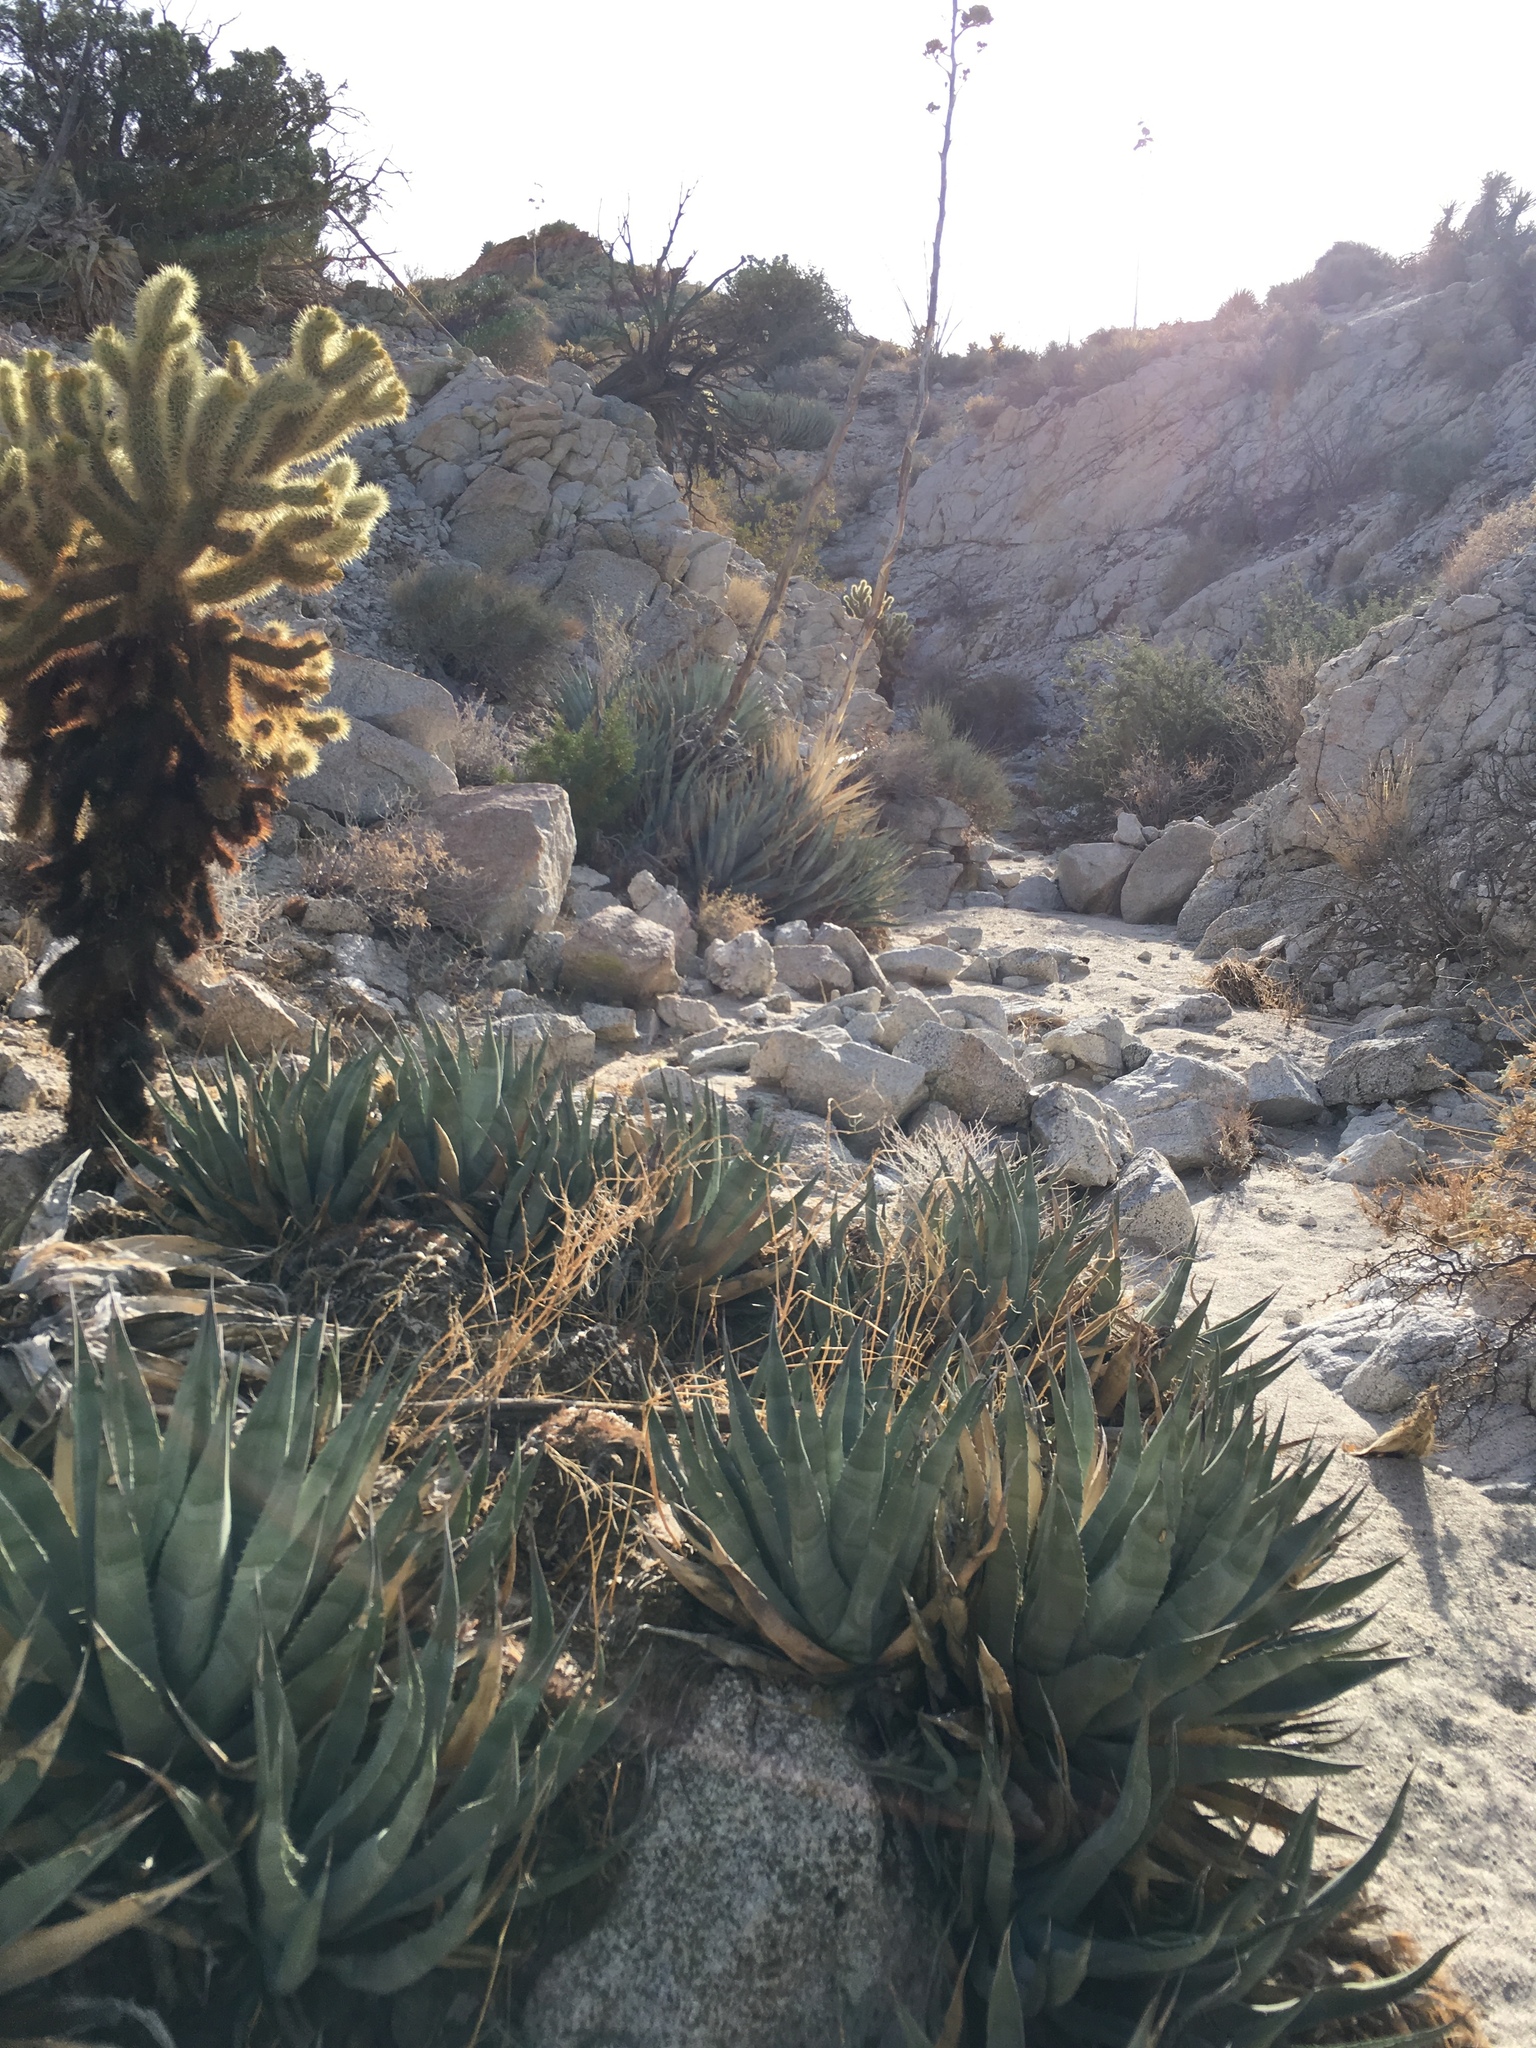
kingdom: Plantae
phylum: Tracheophyta
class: Liliopsida
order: Asparagales
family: Asparagaceae
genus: Agave
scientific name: Agave deserti
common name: Desert agave
